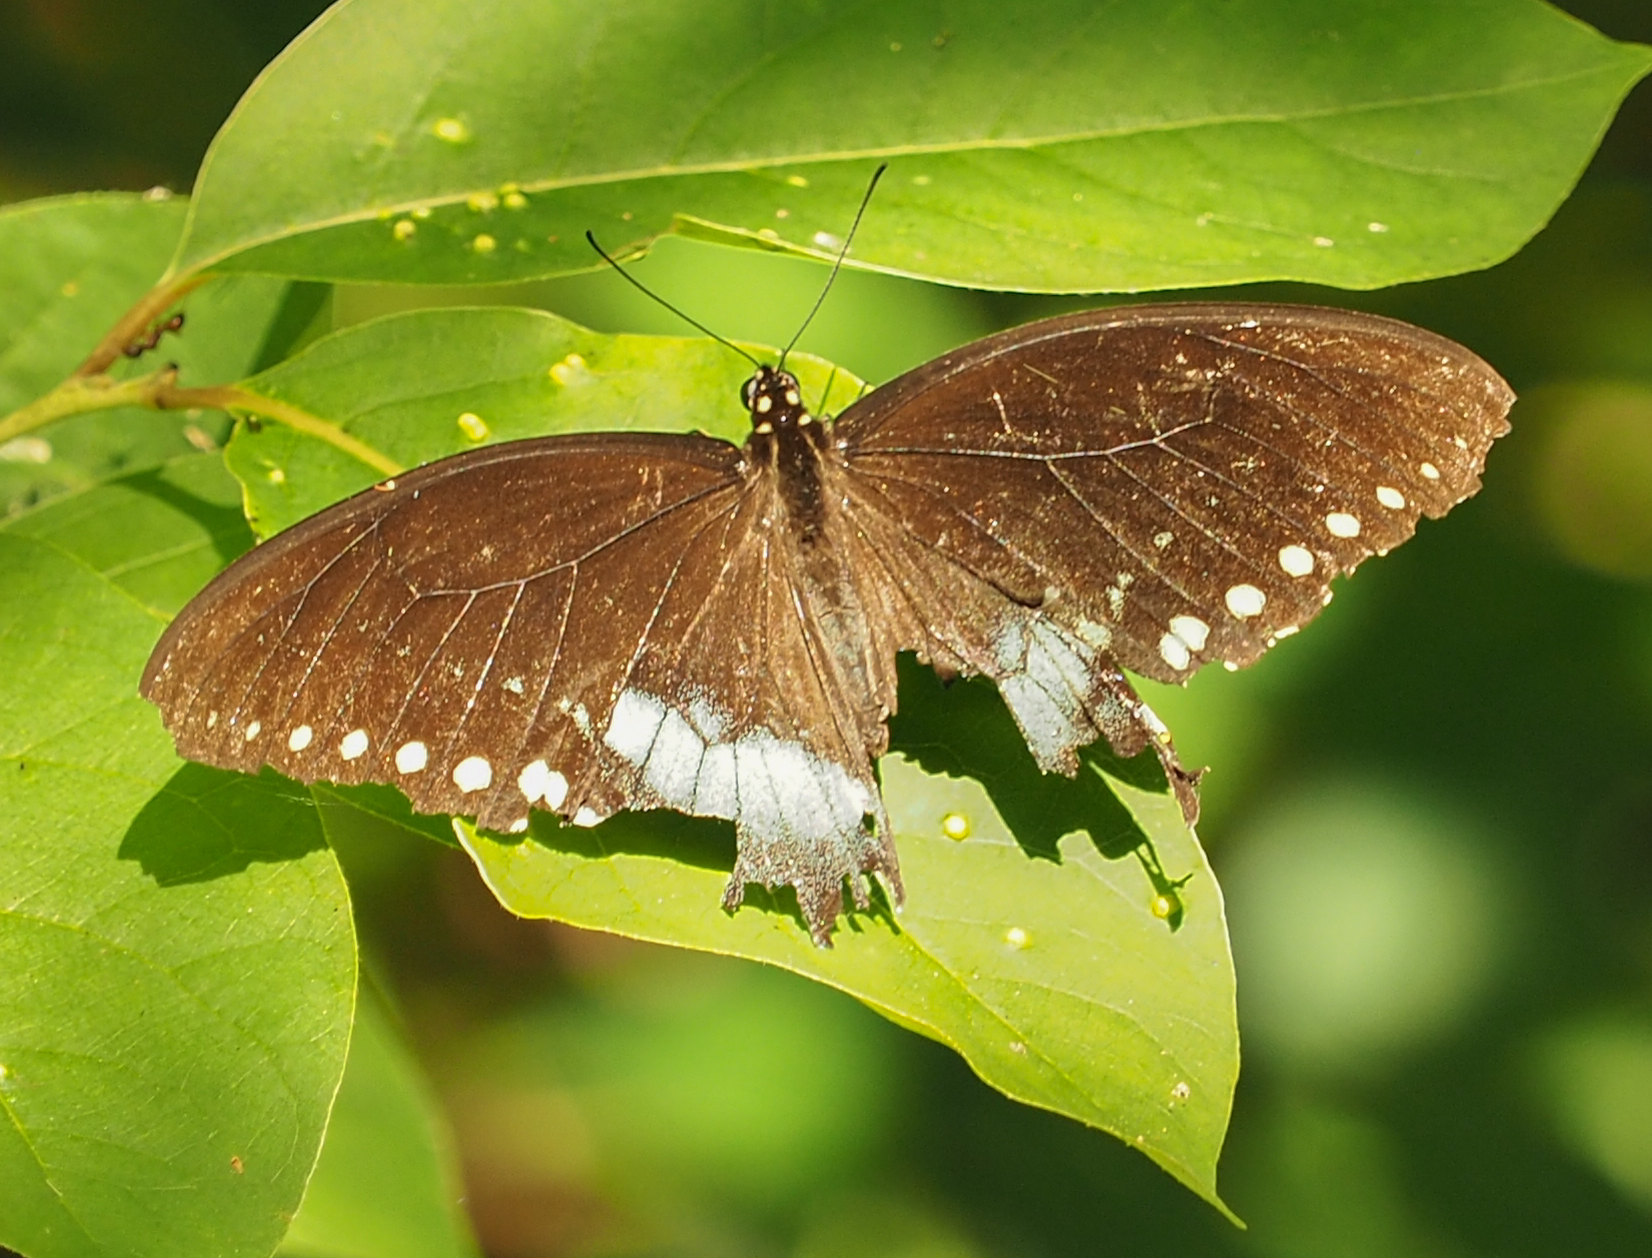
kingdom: Animalia
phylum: Arthropoda
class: Insecta
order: Lepidoptera
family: Papilionidae
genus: Papilio
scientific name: Papilio troilus
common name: Spicebush swallowtail
